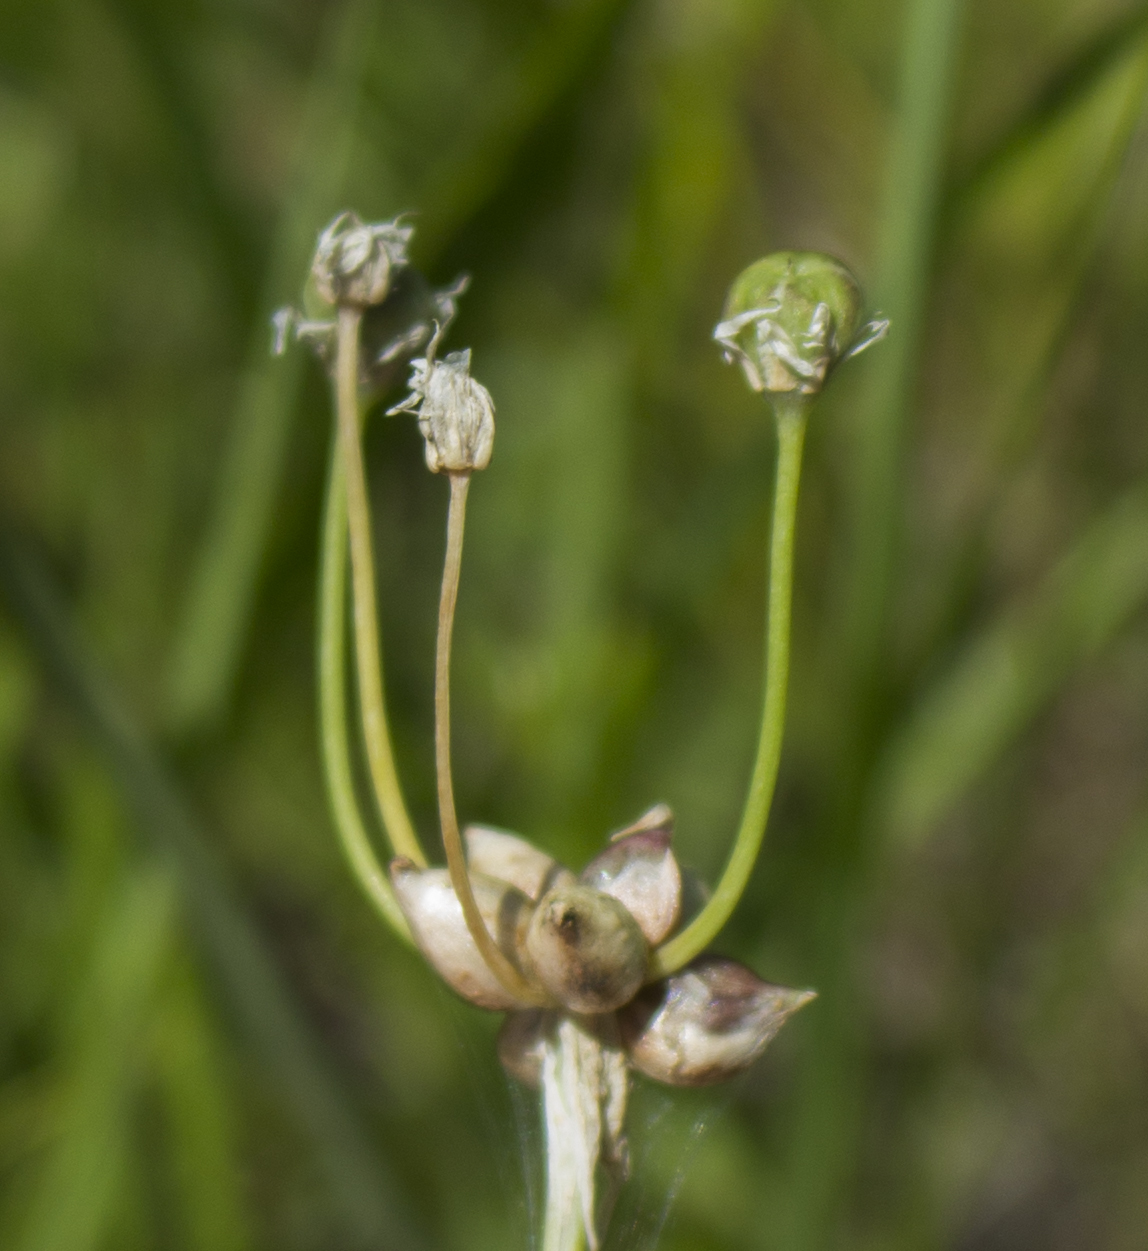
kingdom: Plantae
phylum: Tracheophyta
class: Liliopsida
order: Asparagales
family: Amaryllidaceae
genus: Allium
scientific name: Allium canadense
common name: Meadow garlic
